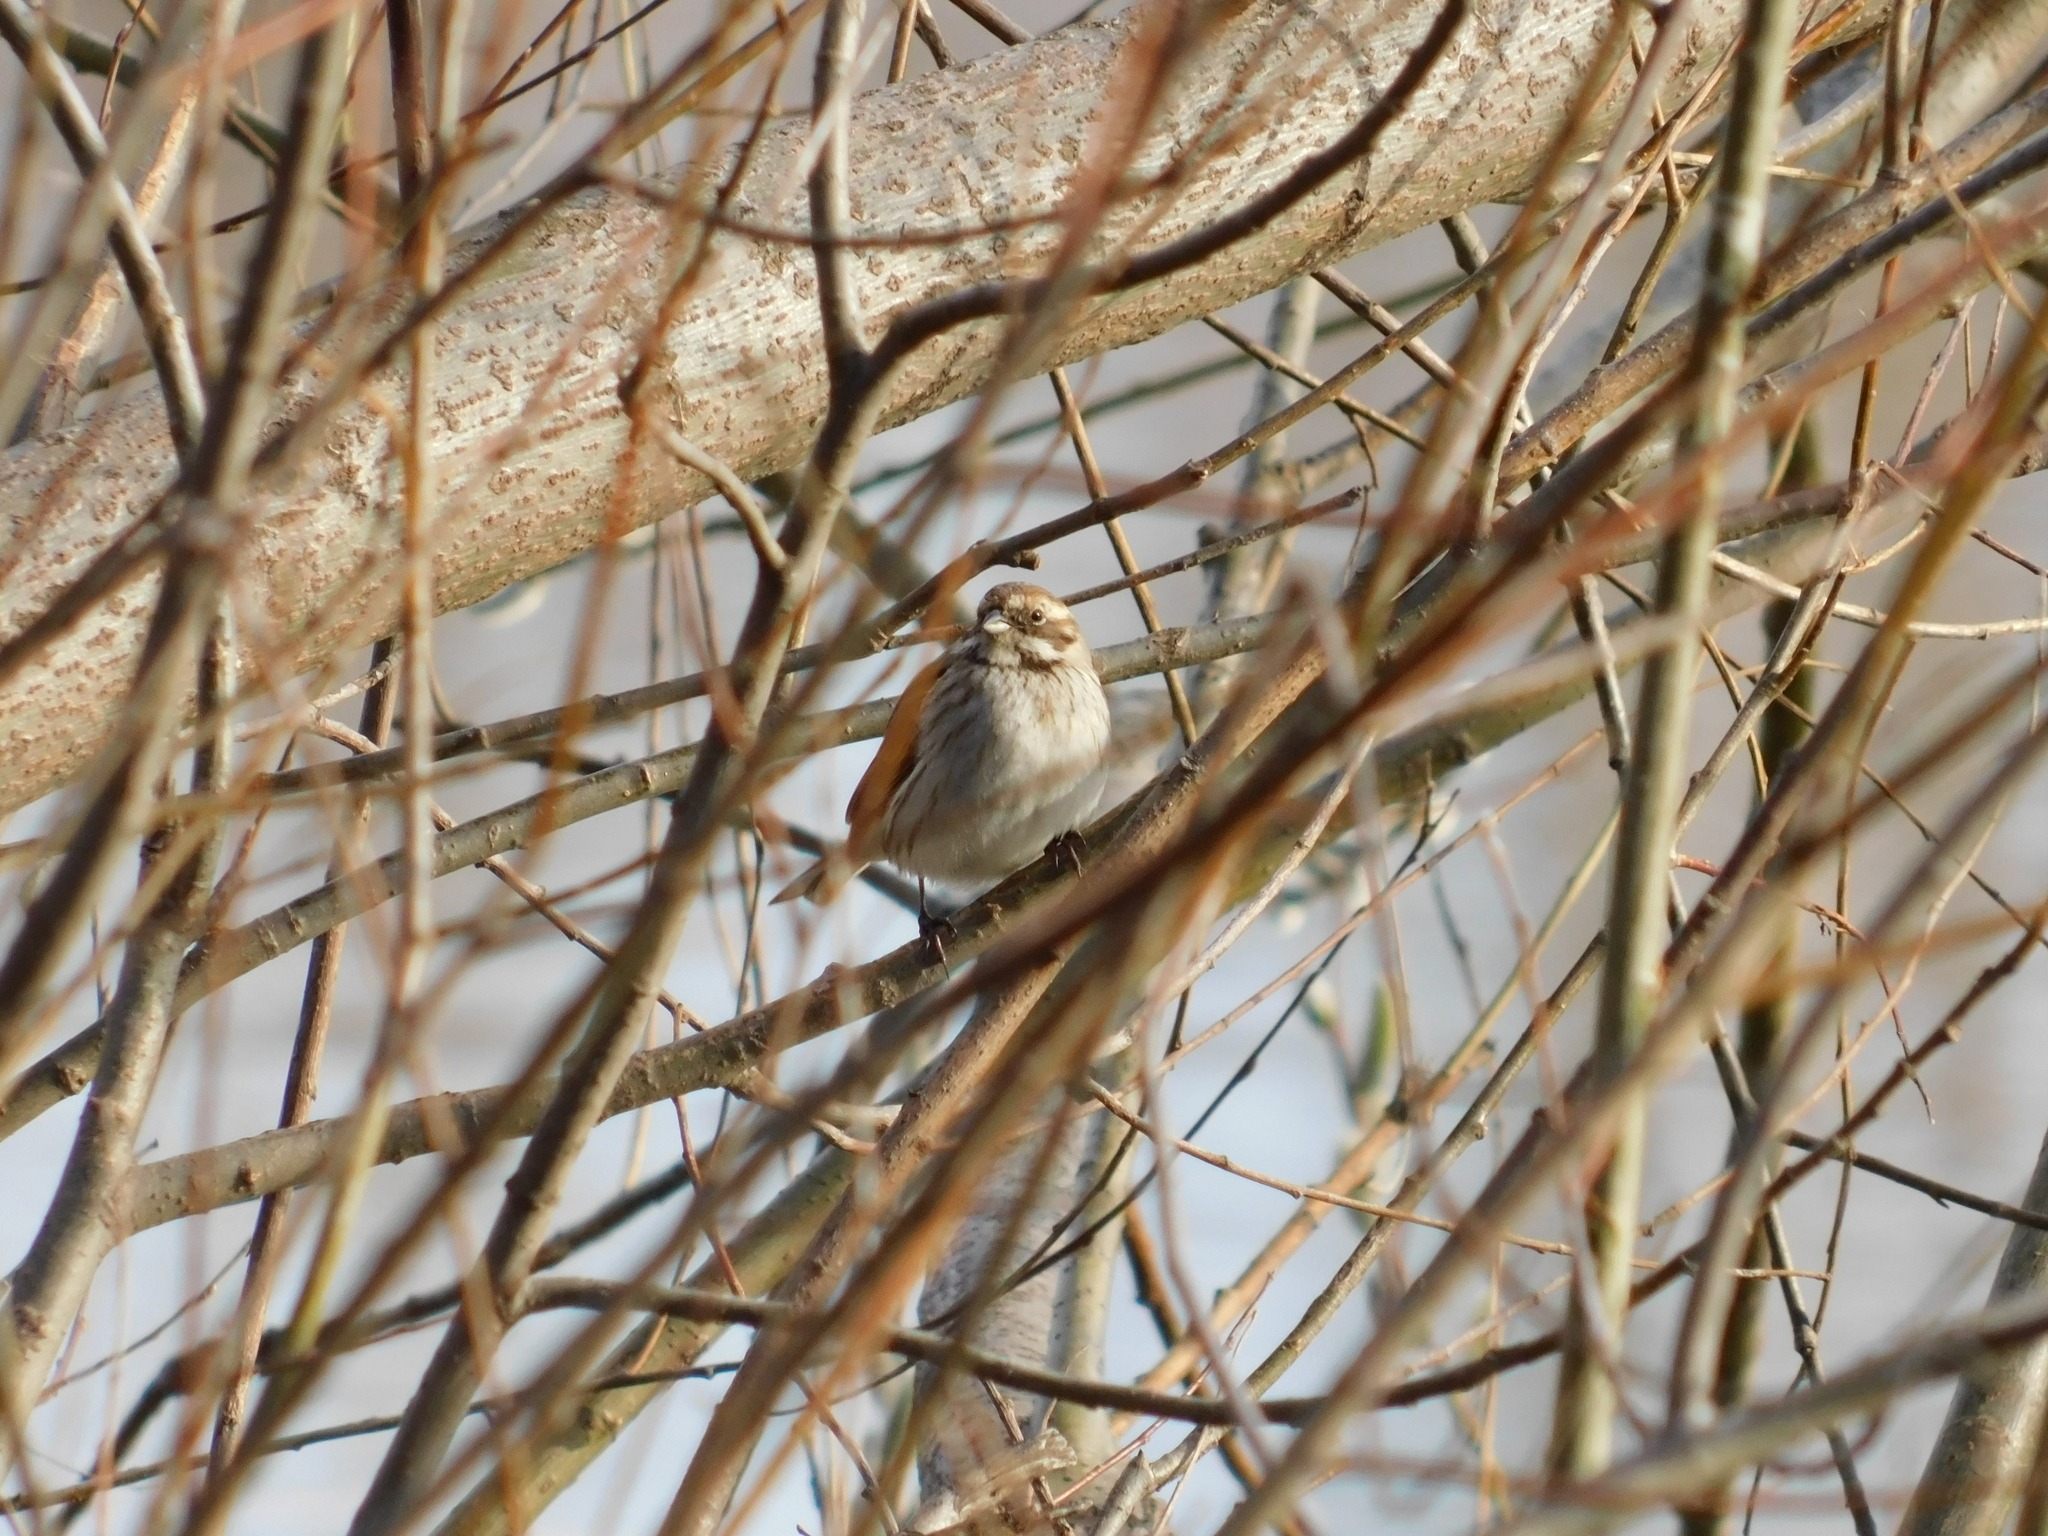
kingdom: Animalia
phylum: Chordata
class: Aves
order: Passeriformes
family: Emberizidae
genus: Emberiza
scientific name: Emberiza schoeniclus
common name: Reed bunting
